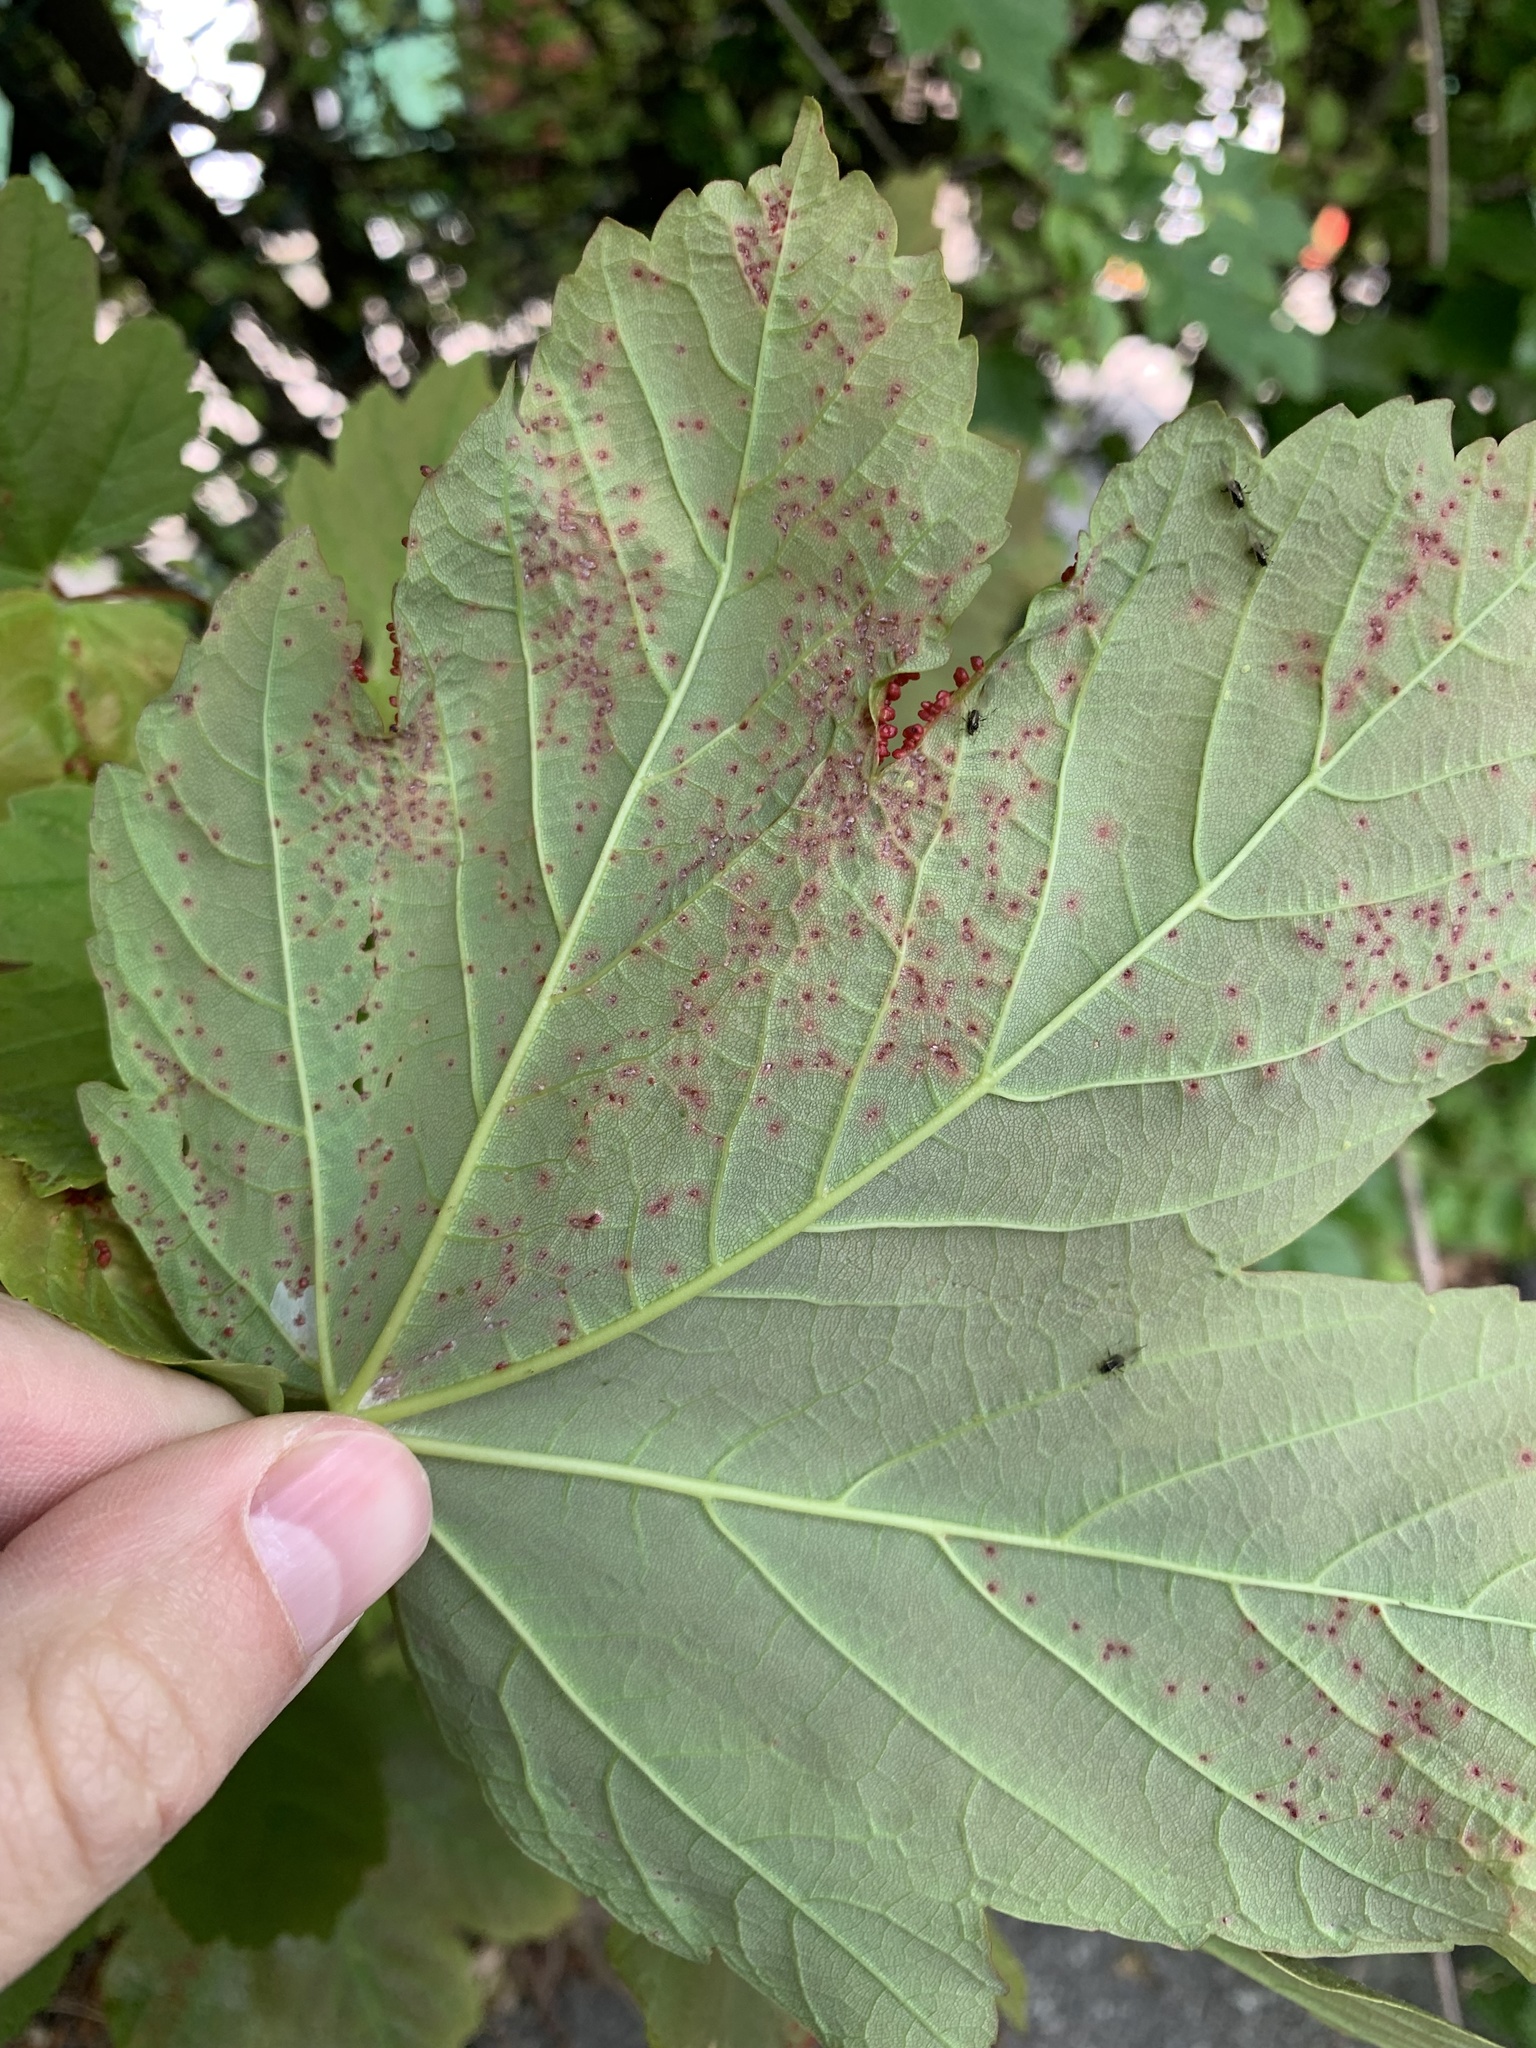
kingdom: Animalia
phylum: Arthropoda
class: Arachnida
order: Trombidiformes
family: Eriophyidae
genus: Aceria
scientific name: Aceria cephaloneus
